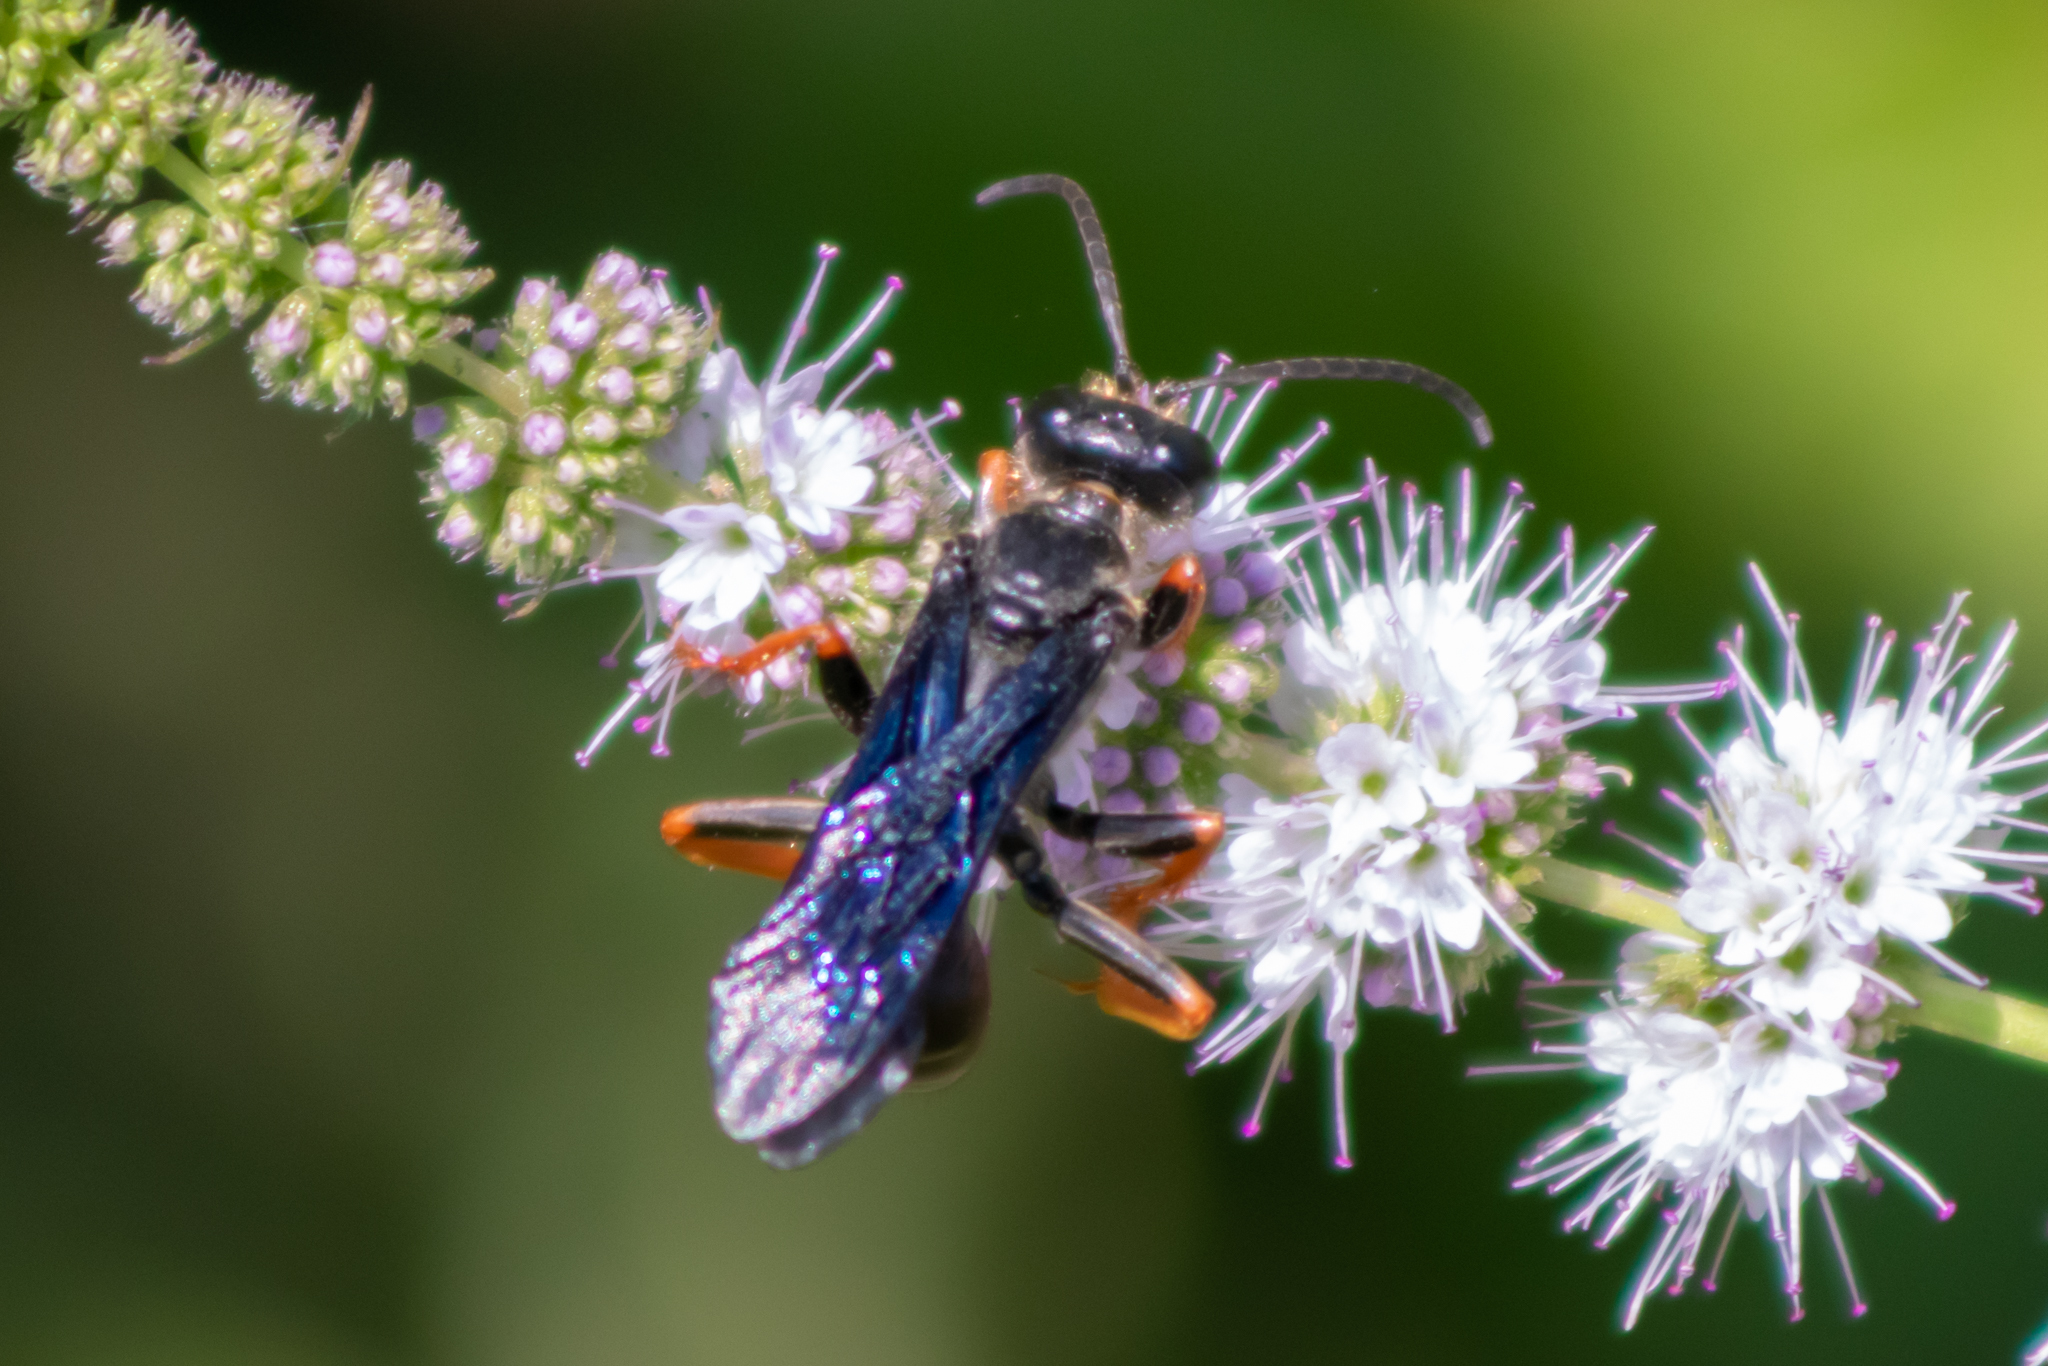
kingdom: Animalia
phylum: Arthropoda
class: Insecta
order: Hymenoptera
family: Sphecidae
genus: Sphex
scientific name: Sphex nudus
